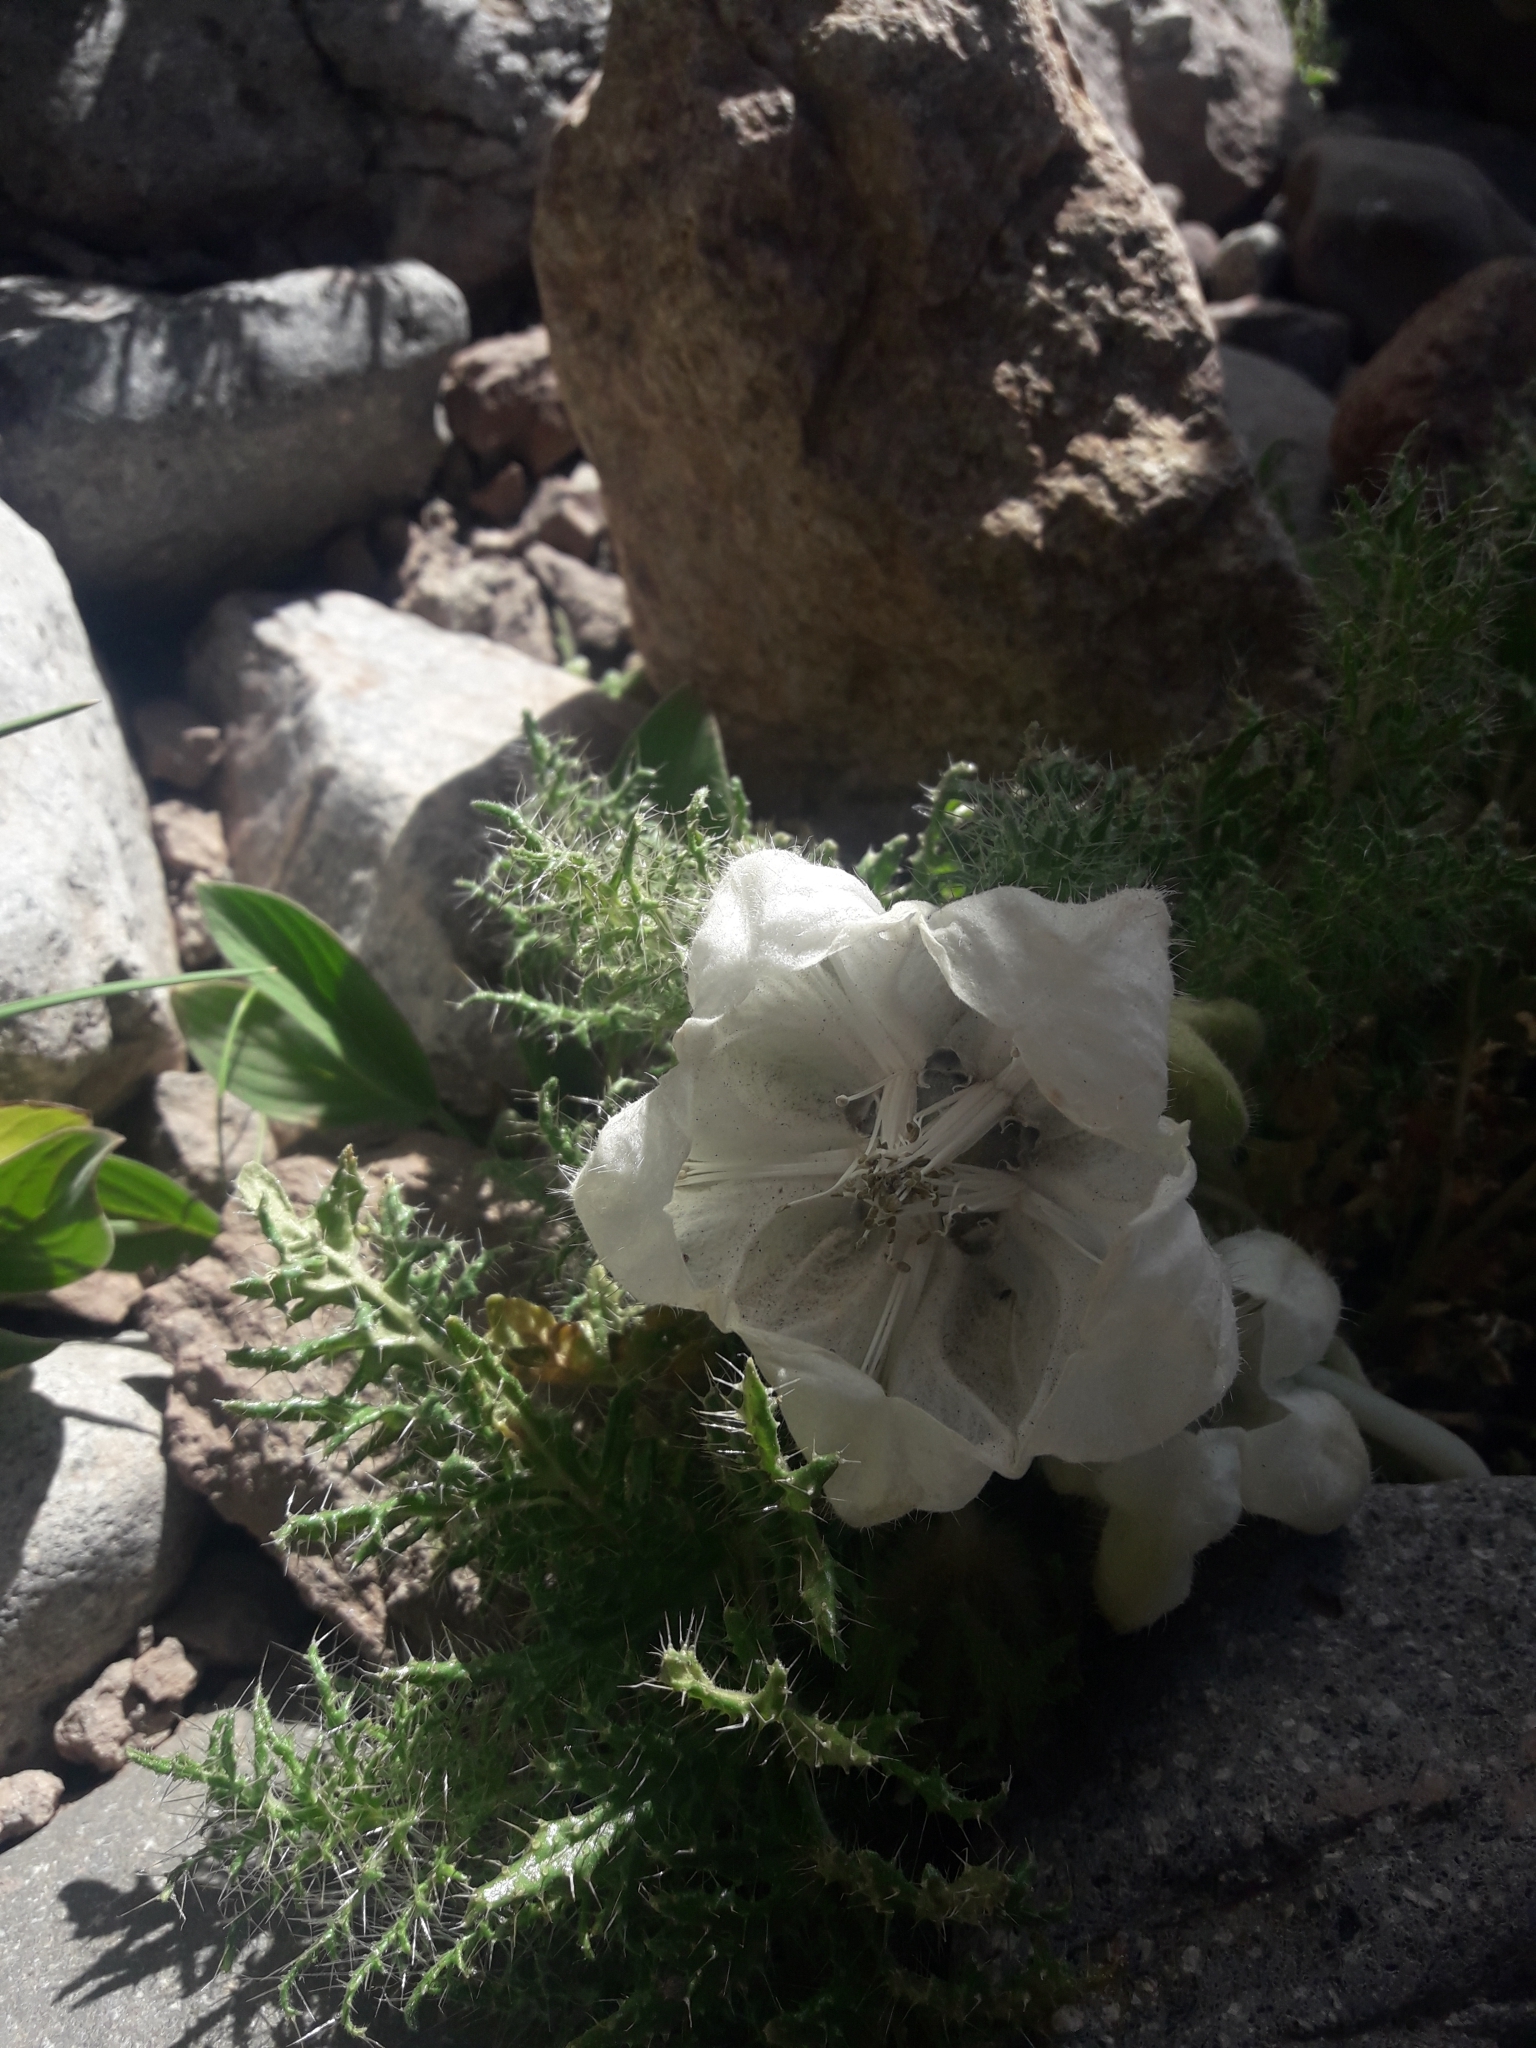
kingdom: Plantae
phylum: Tracheophyta
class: Magnoliopsida
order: Cornales
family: Loasaceae
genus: Caiophora
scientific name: Caiophora coronata
